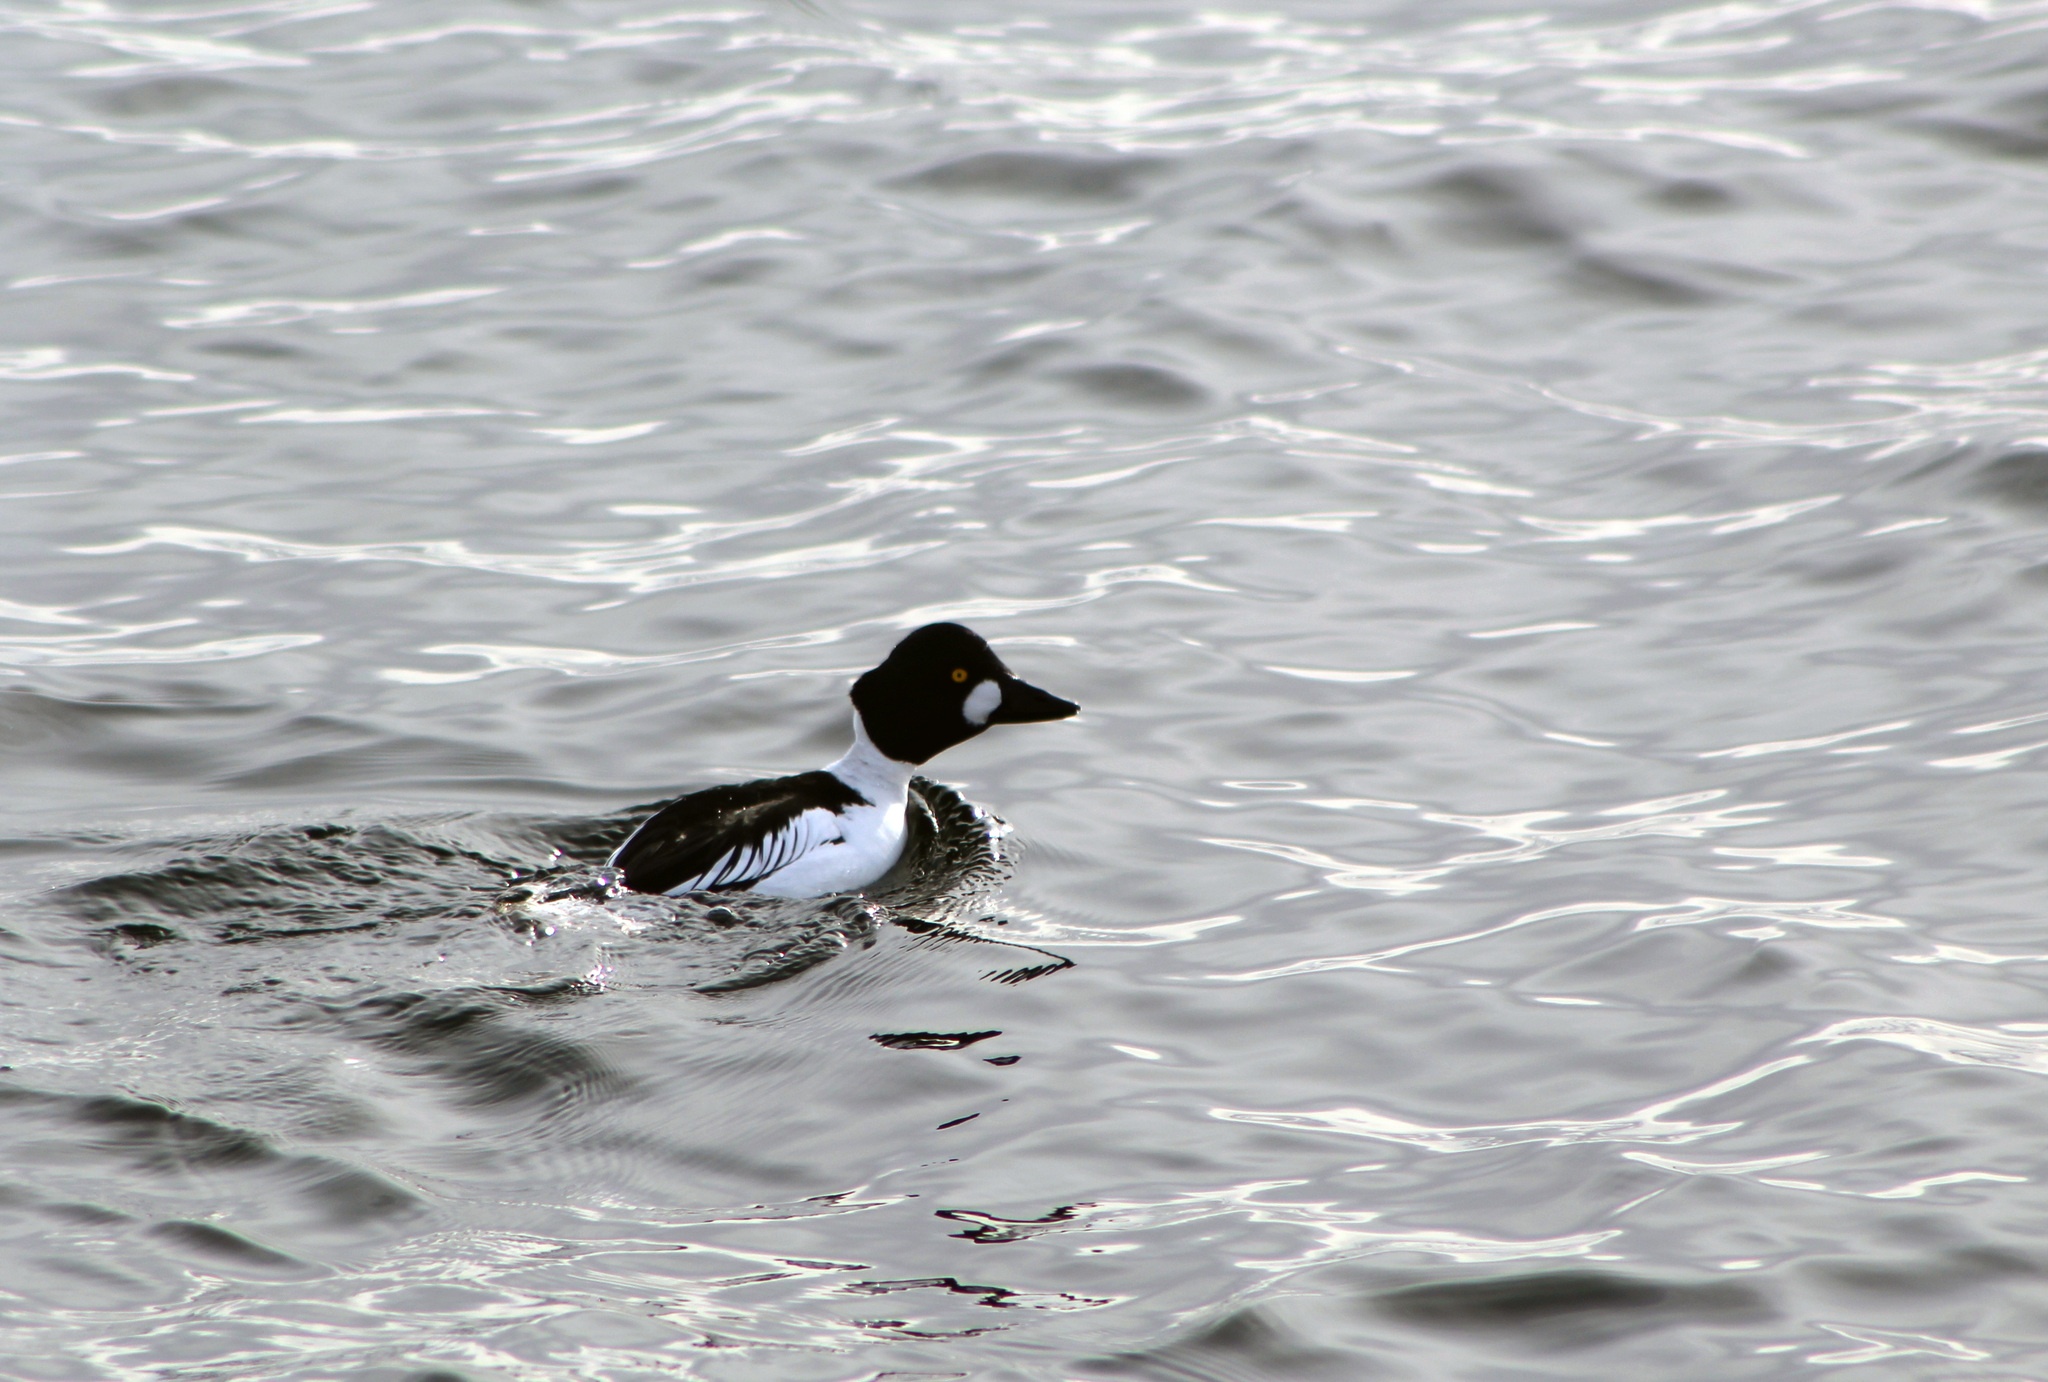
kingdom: Animalia
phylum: Chordata
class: Aves
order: Anseriformes
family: Anatidae
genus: Bucephala
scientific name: Bucephala clangula
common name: Common goldeneye
